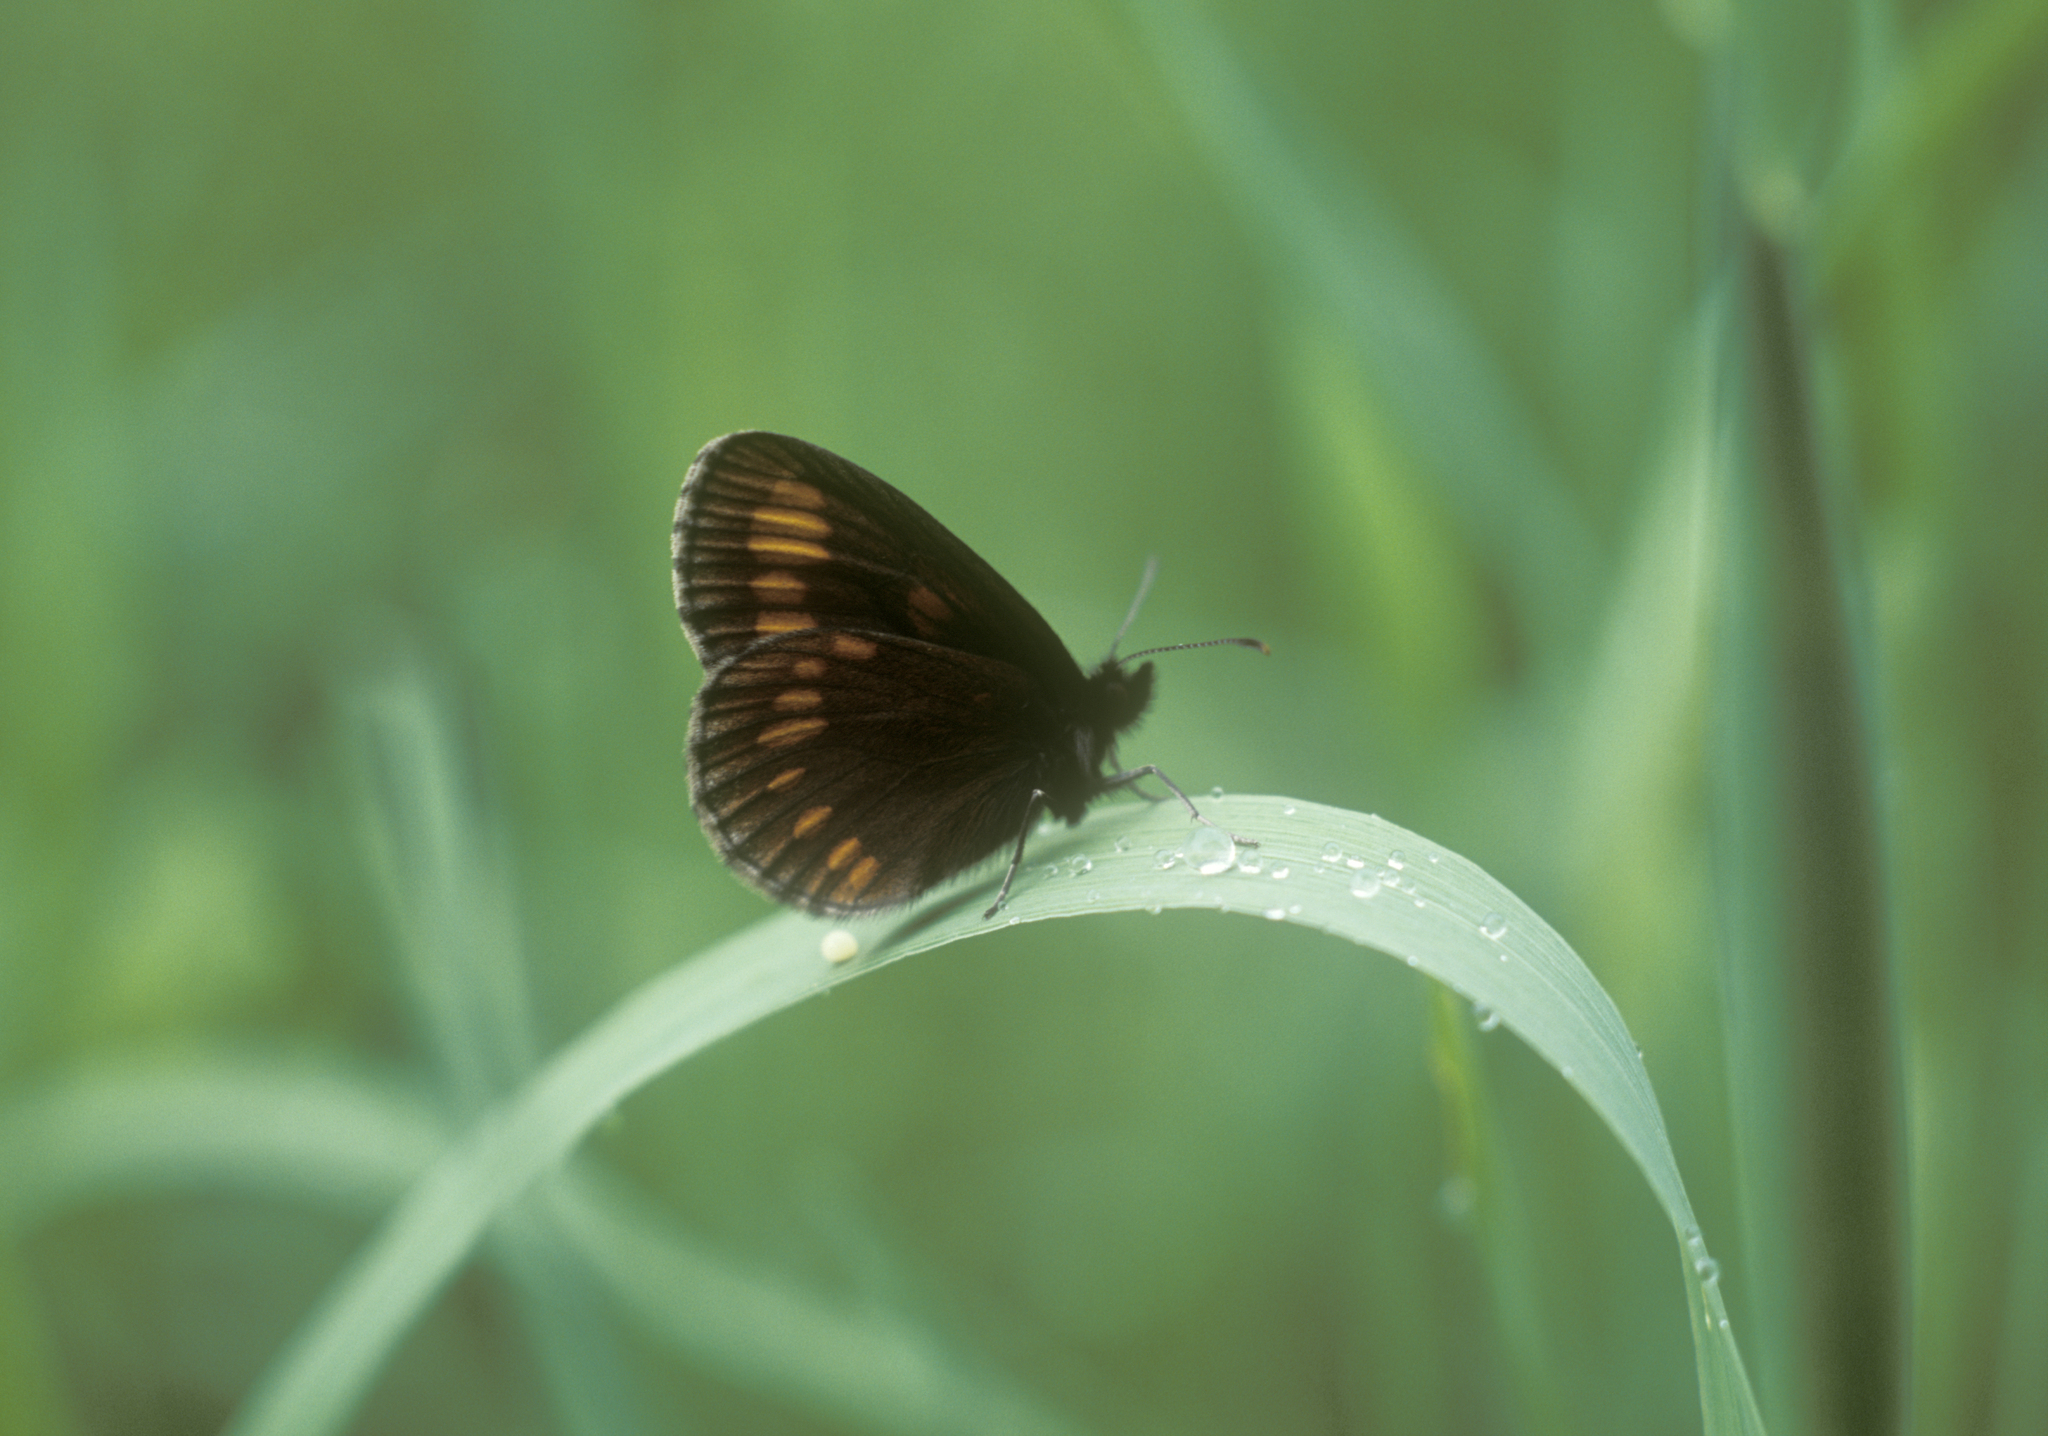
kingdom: Animalia
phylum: Arthropoda
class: Insecta
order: Lepidoptera
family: Nymphalidae
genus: Erebia
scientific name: Erebia maurisius
